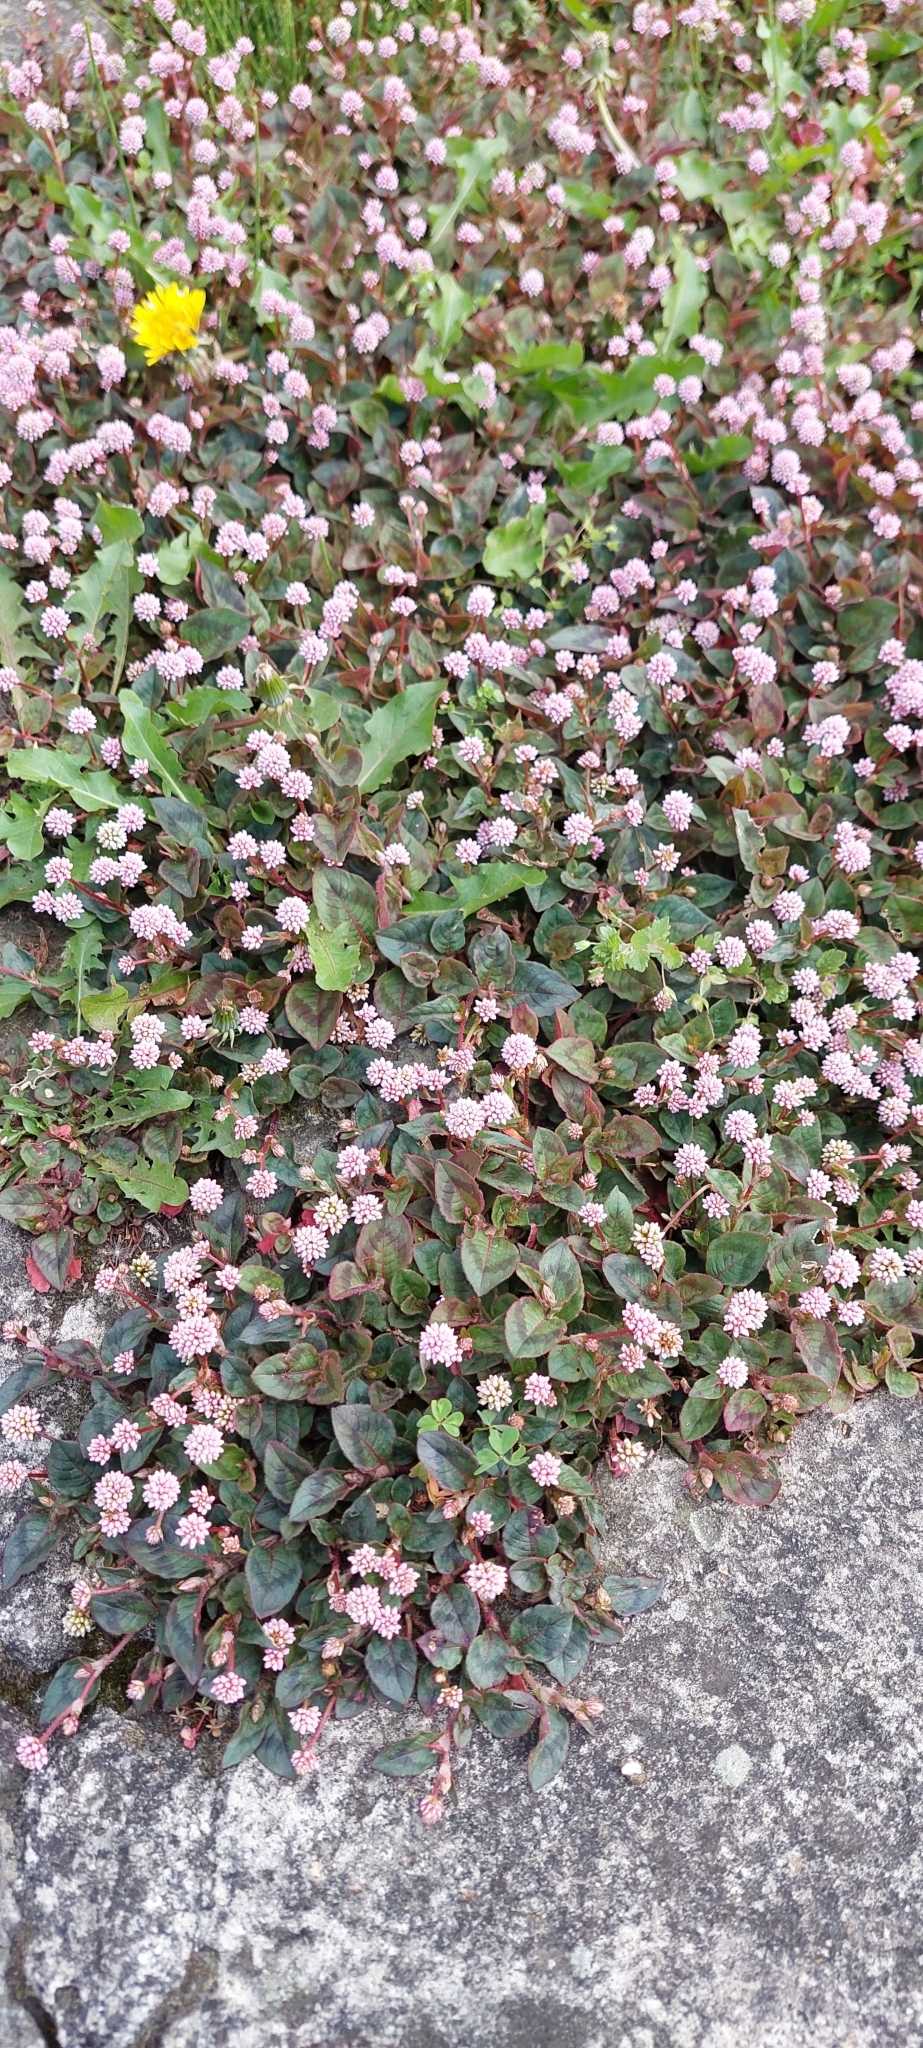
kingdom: Plantae
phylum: Tracheophyta
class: Magnoliopsida
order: Caryophyllales
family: Polygonaceae
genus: Persicaria
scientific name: Persicaria capitata
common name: Pinkhead smartweed
